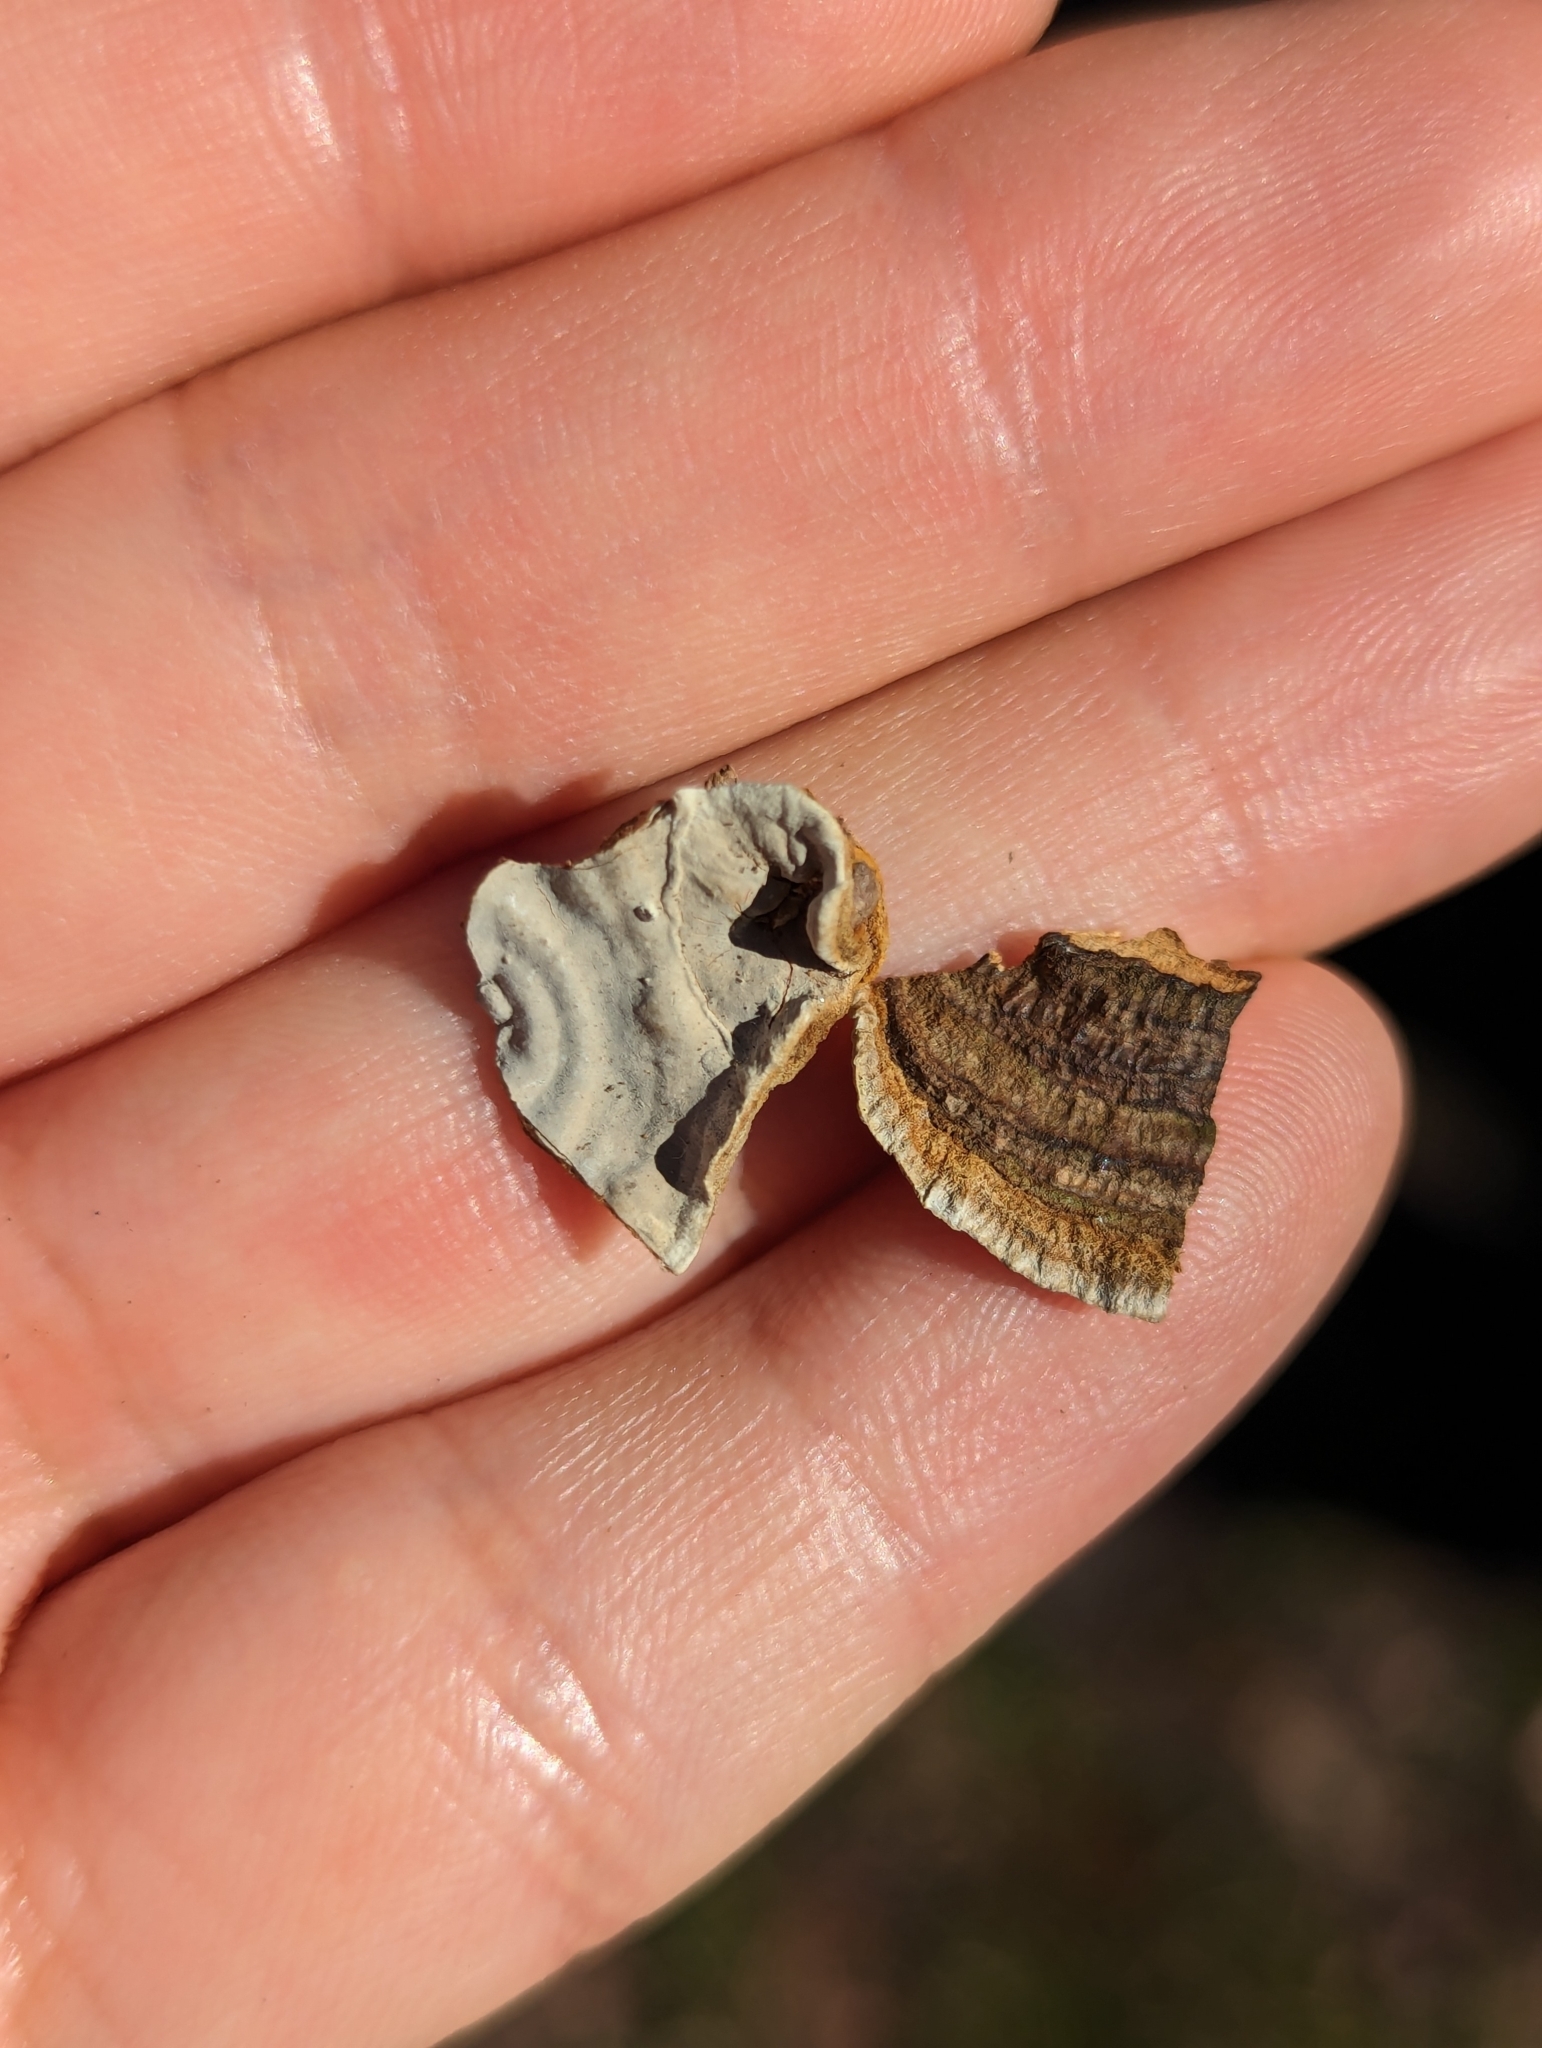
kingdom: Fungi
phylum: Basidiomycota
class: Agaricomycetes
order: Russulales
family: Stereaceae
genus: Xylobolus
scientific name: Xylobolus subpileatus
